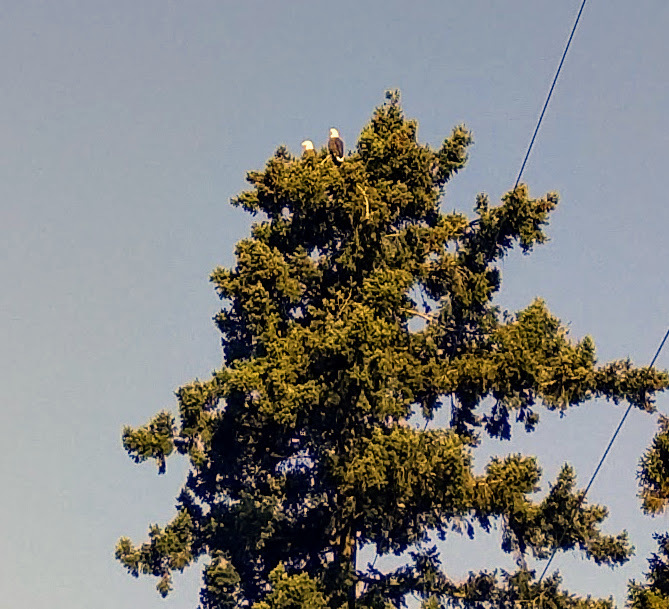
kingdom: Animalia
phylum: Chordata
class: Aves
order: Accipitriformes
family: Accipitridae
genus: Haliaeetus
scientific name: Haliaeetus leucocephalus
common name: Bald eagle
